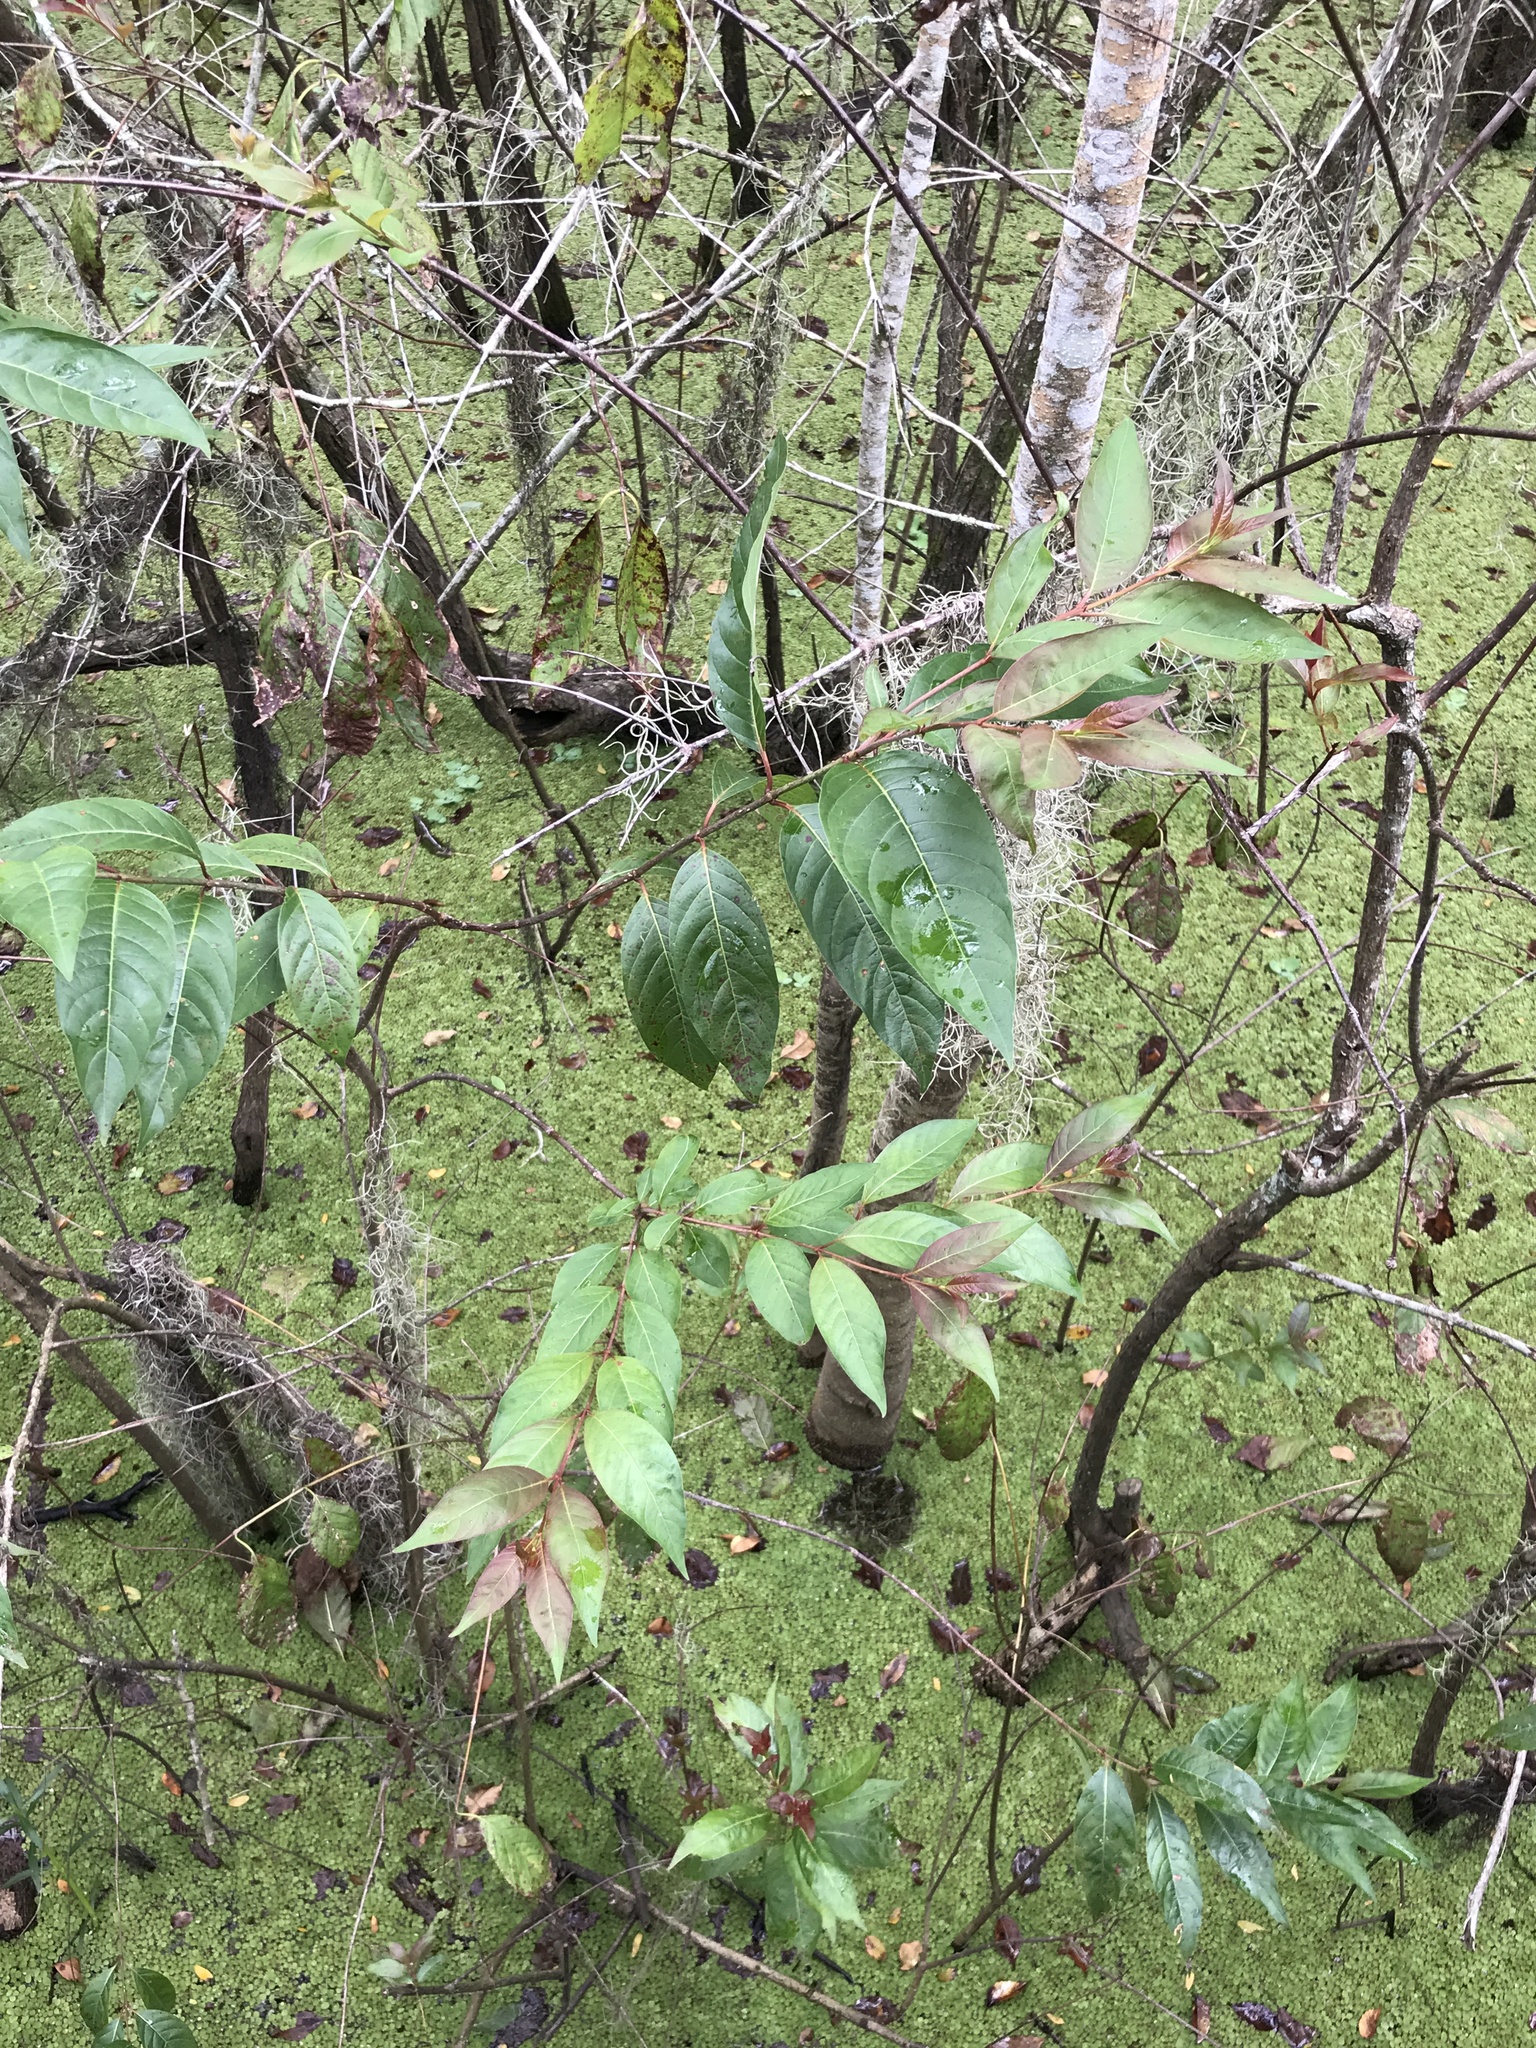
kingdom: Plantae
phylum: Tracheophyta
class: Magnoliopsida
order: Gentianales
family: Rubiaceae
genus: Cephalanthus
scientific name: Cephalanthus occidentalis
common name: Button-willow
